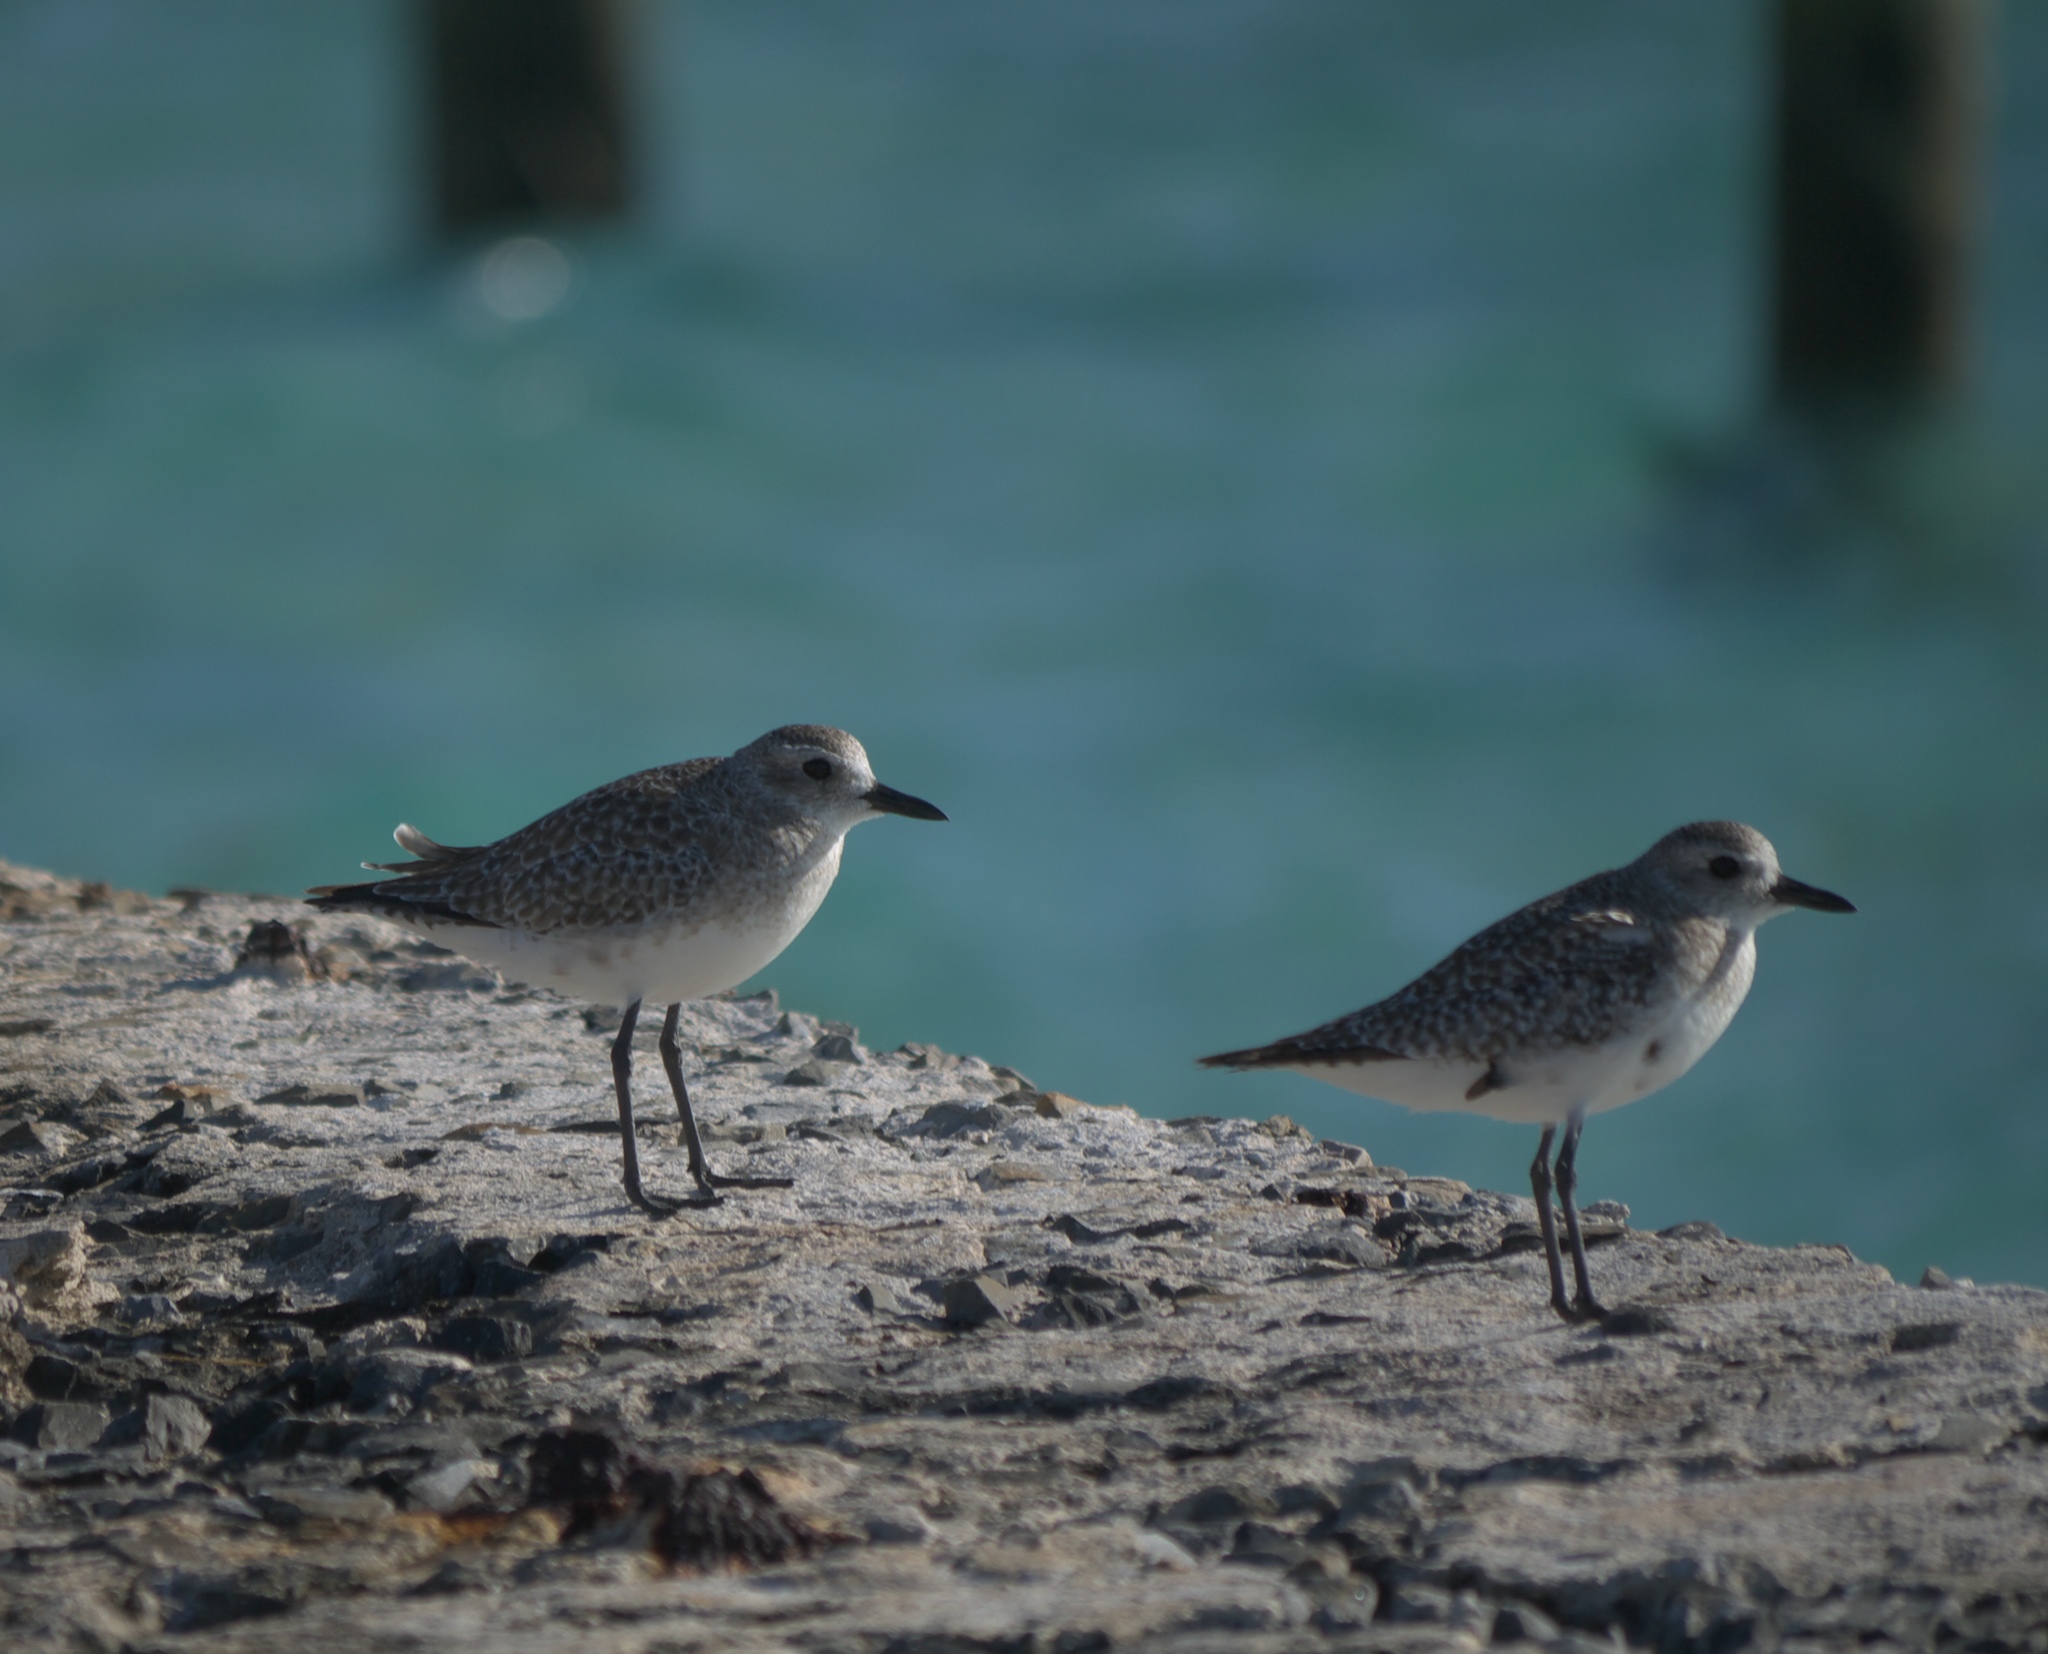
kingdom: Animalia
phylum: Chordata
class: Aves
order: Charadriiformes
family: Charadriidae
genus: Pluvialis
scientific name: Pluvialis squatarola
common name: Grey plover
